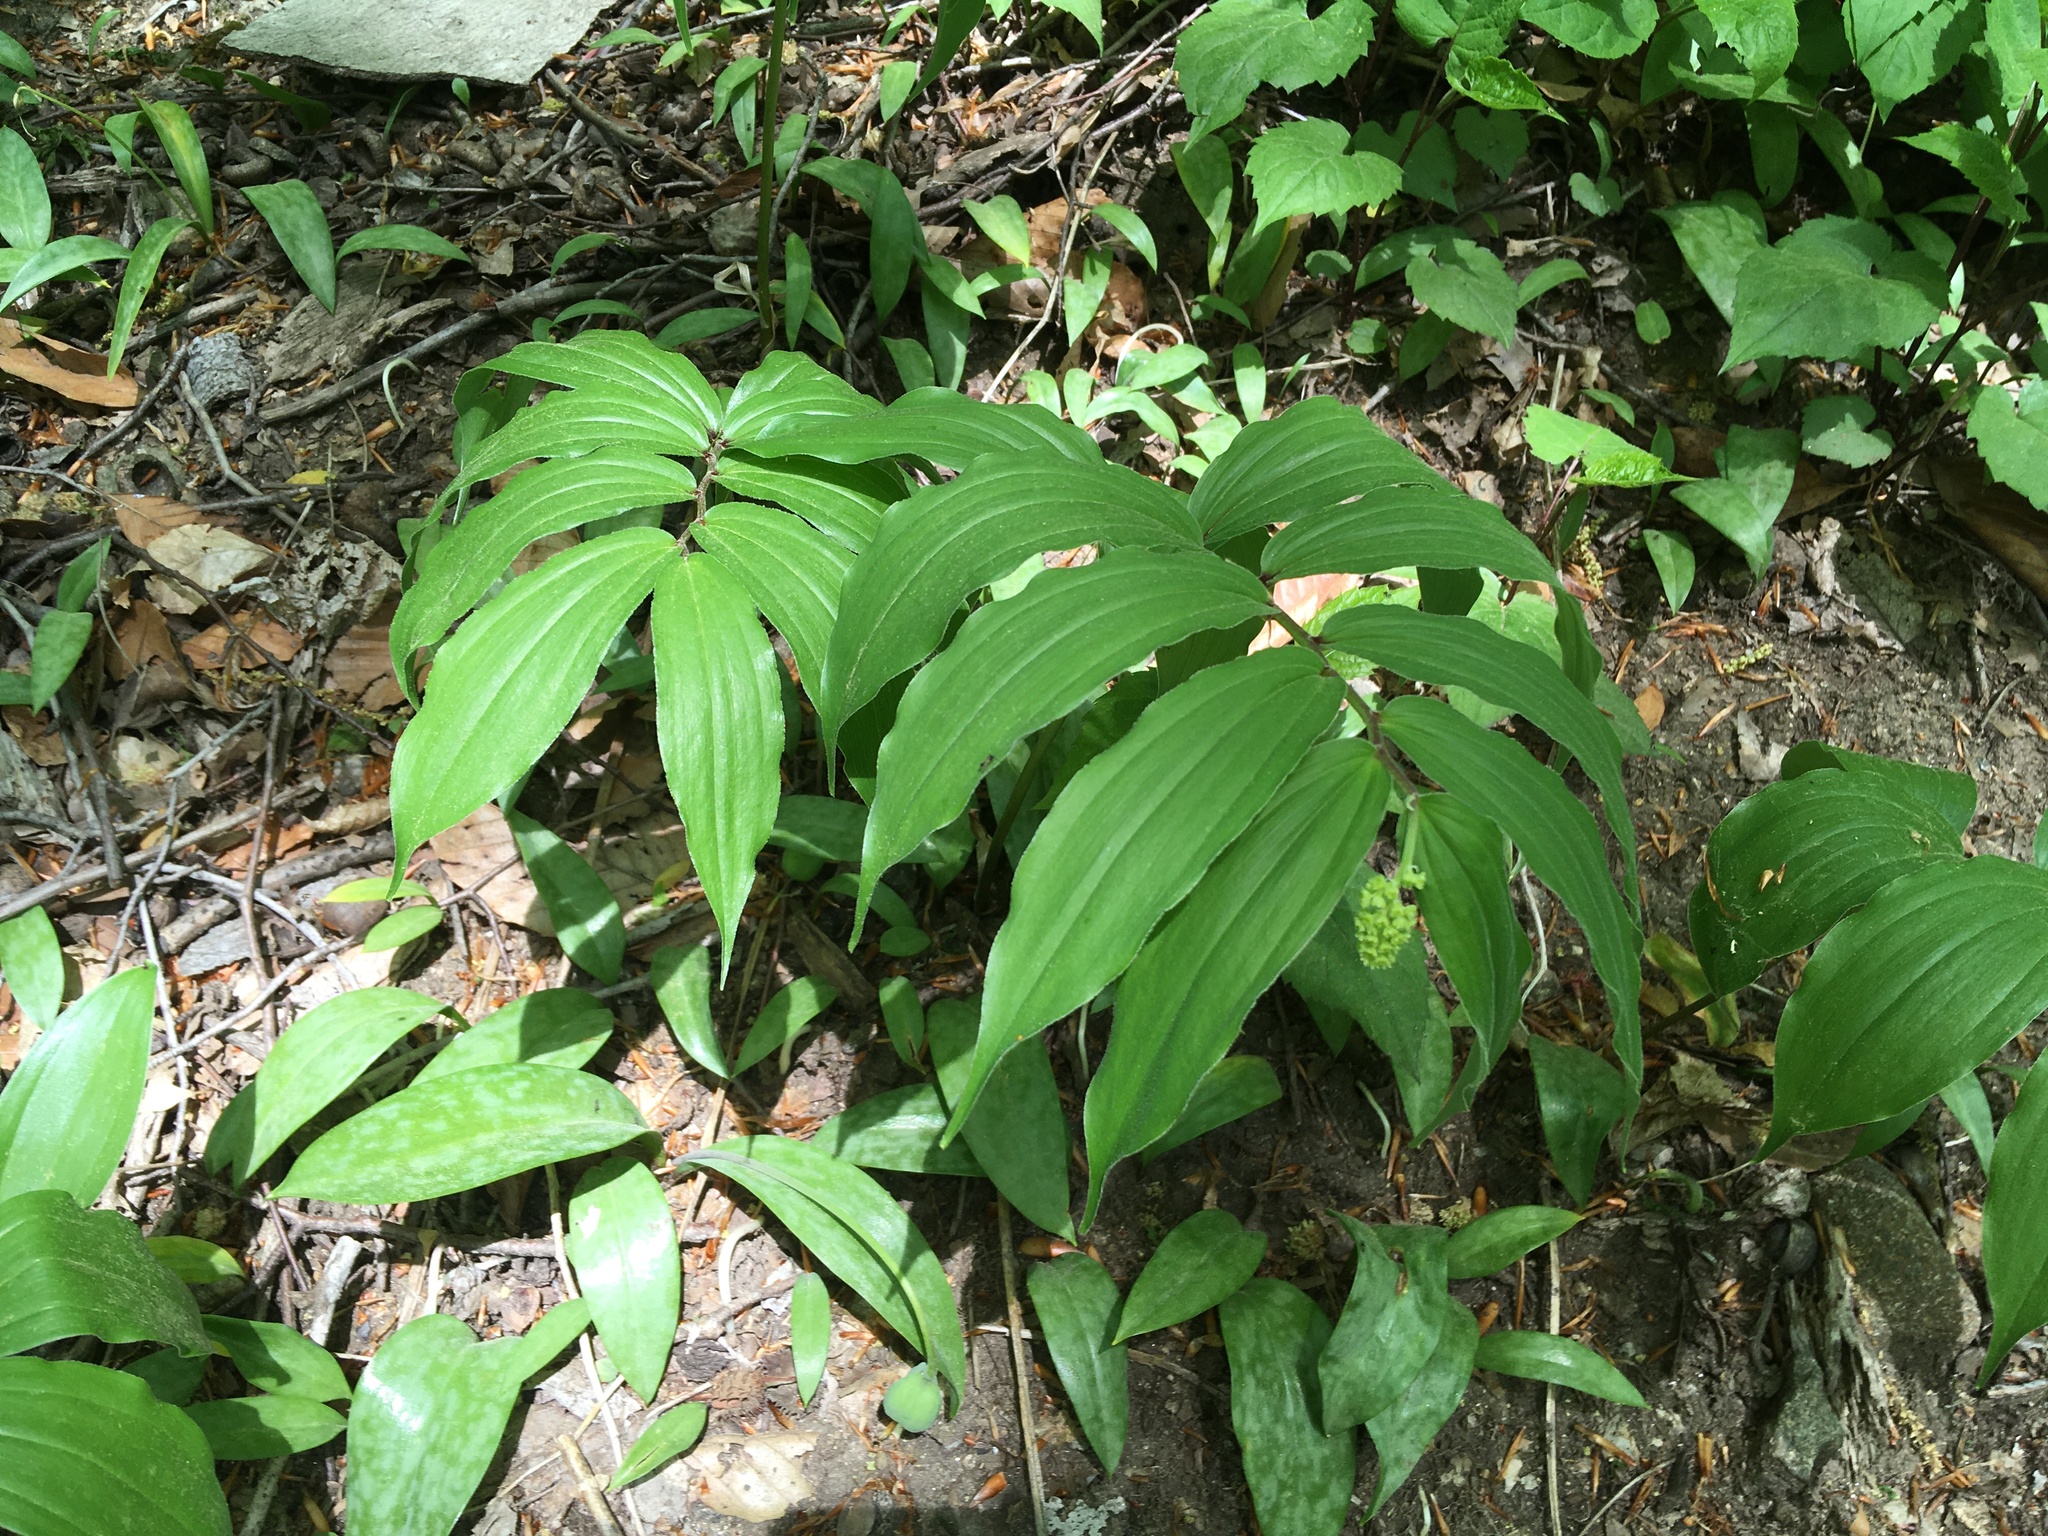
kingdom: Plantae
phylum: Tracheophyta
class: Liliopsida
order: Asparagales
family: Asparagaceae
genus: Maianthemum
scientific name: Maianthemum racemosum
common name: False spikenard
